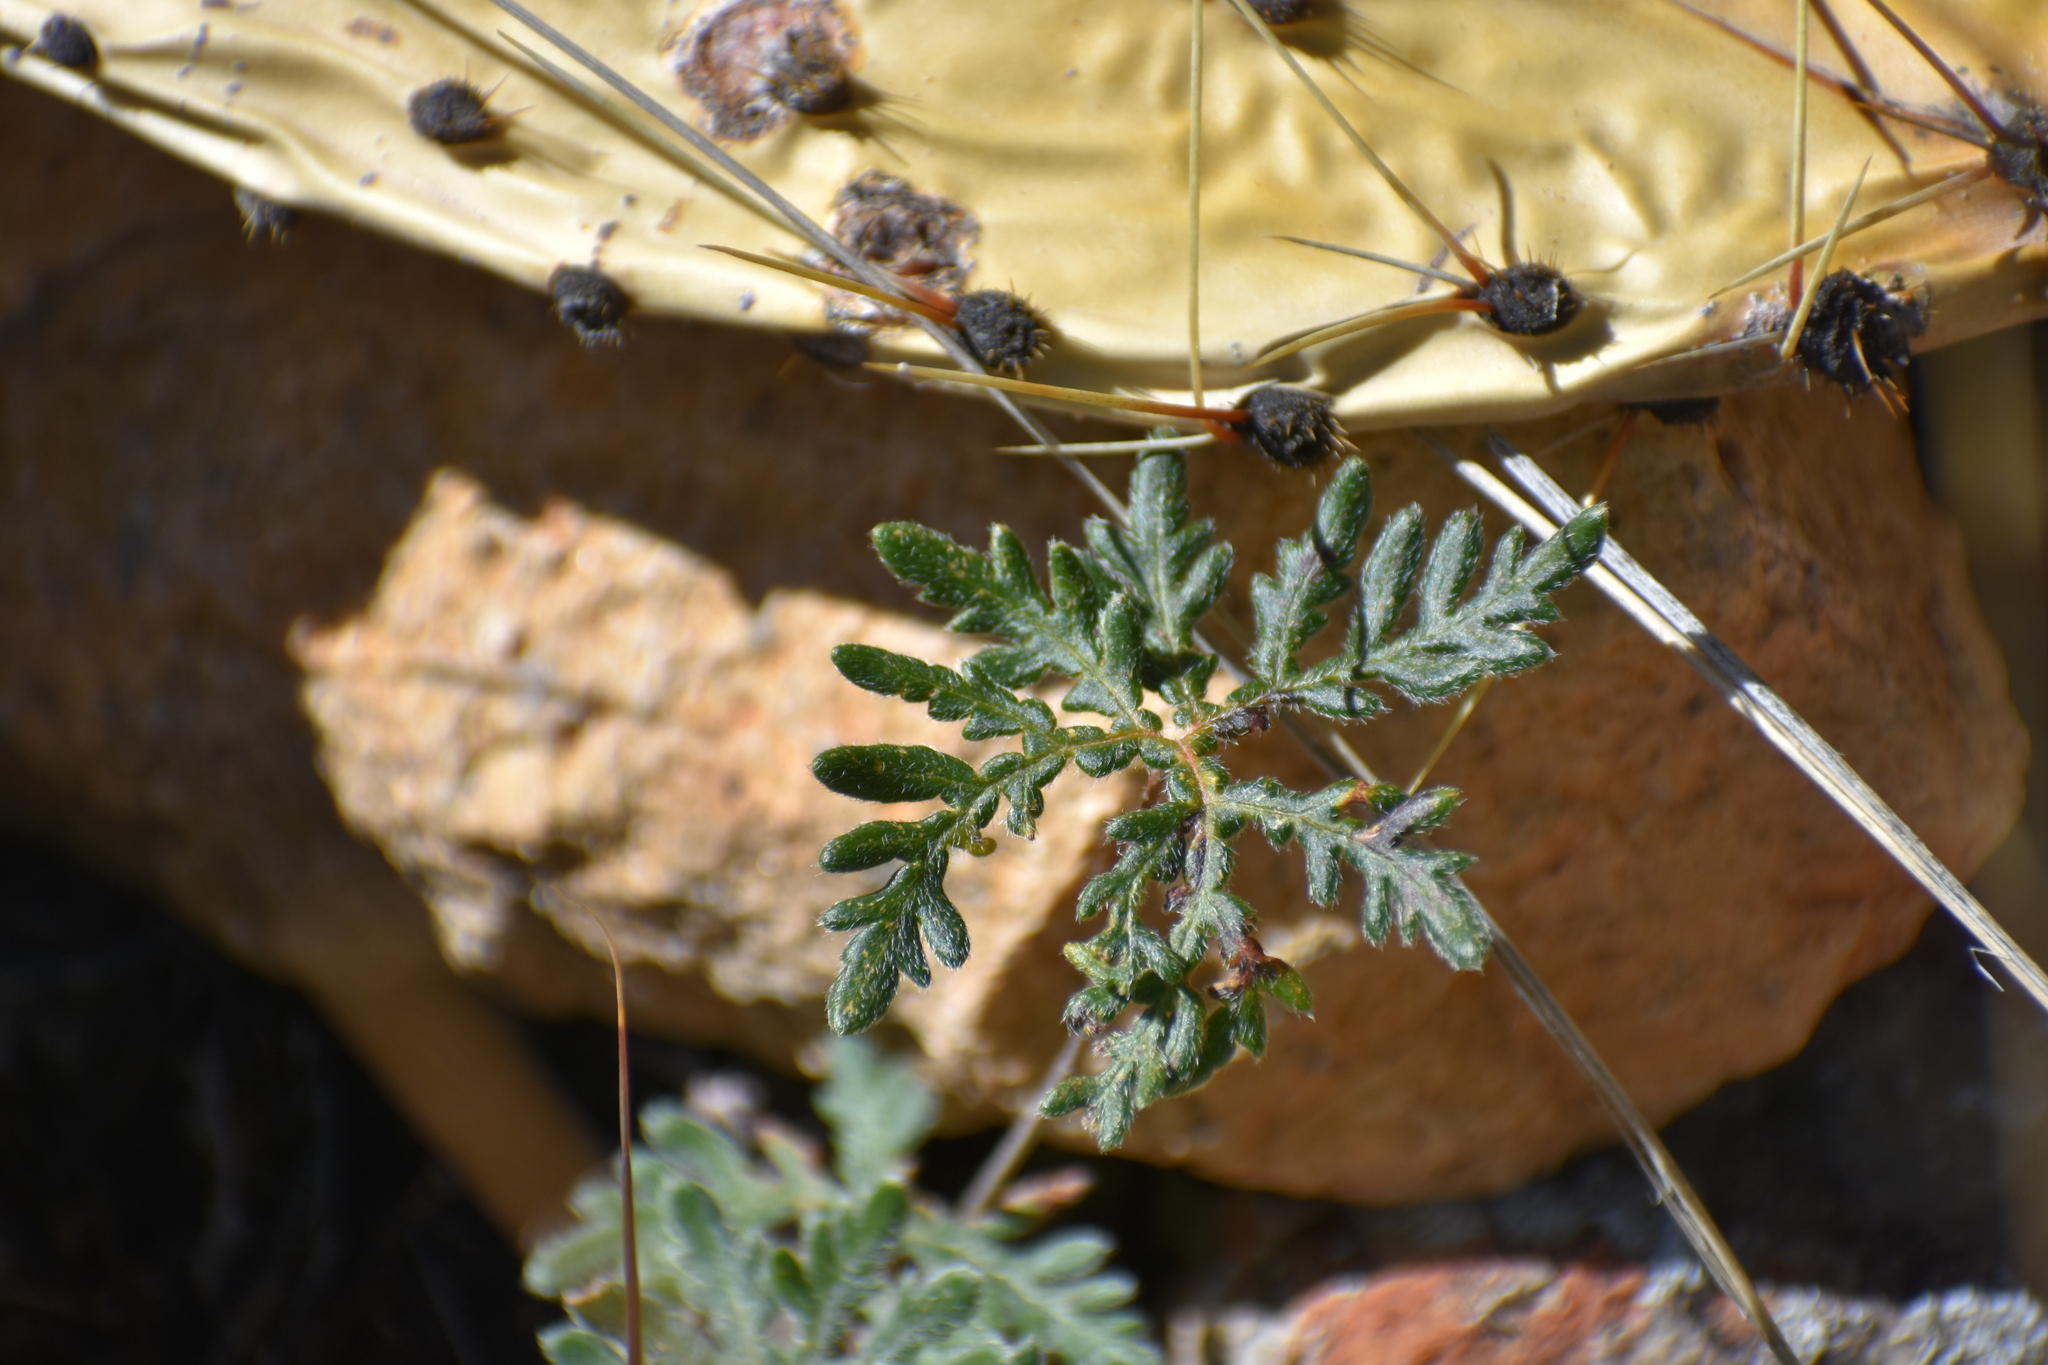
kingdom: Plantae
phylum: Tracheophyta
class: Polypodiopsida
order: Polypodiales
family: Pteridaceae
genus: Bommeria
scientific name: Bommeria hispida
